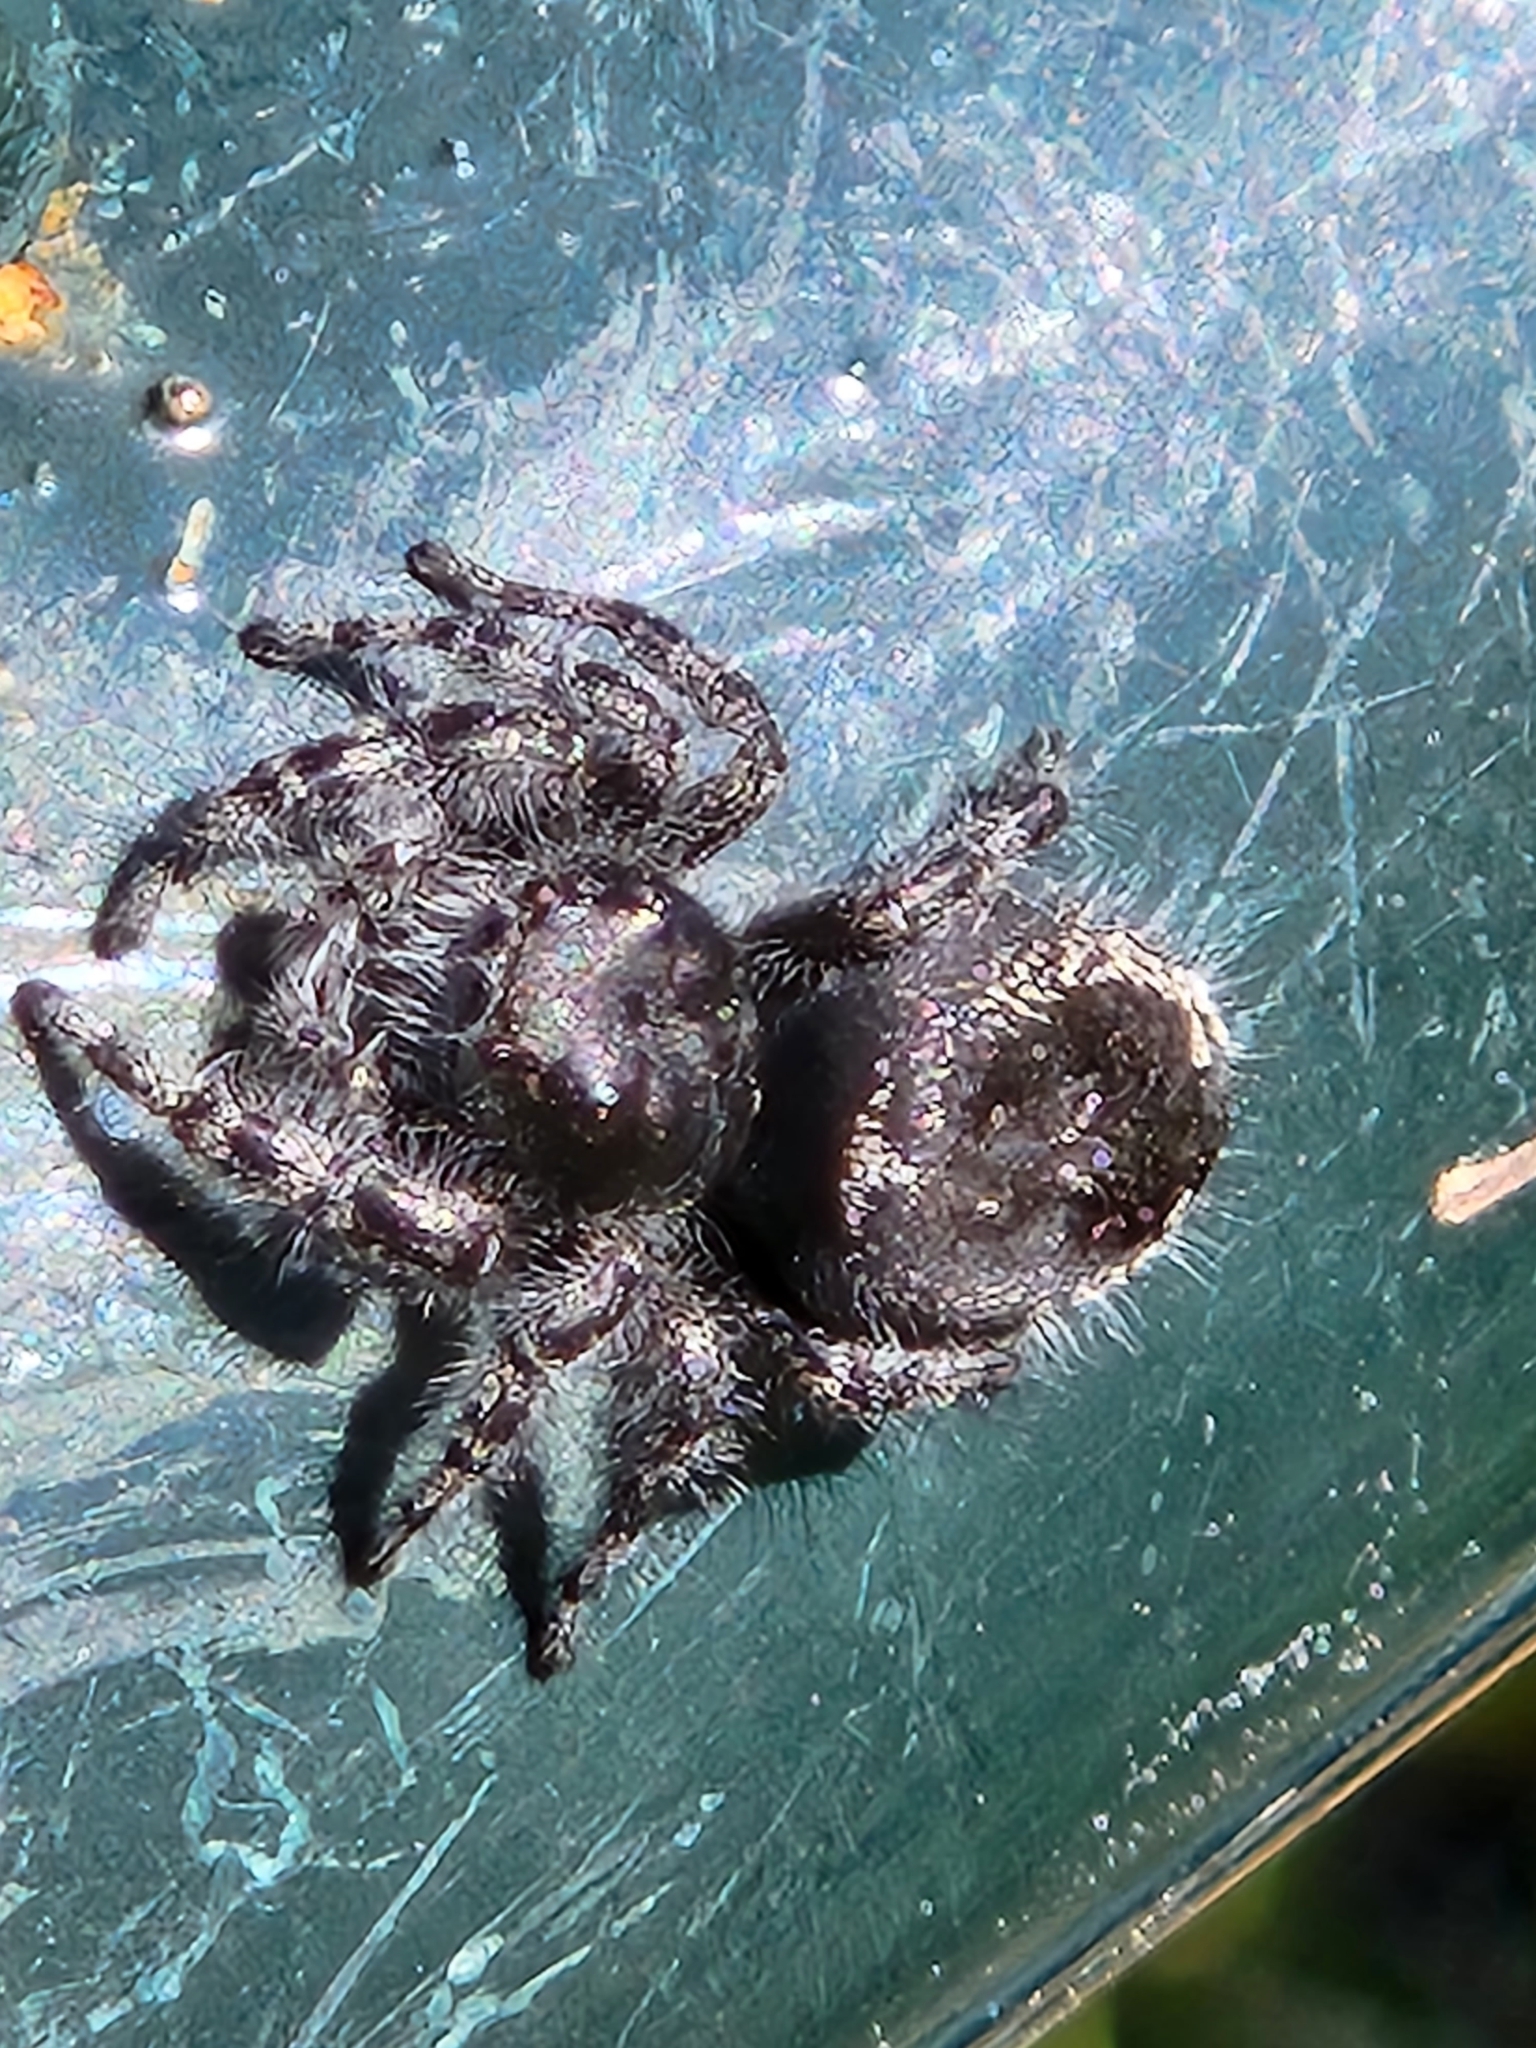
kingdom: Animalia
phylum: Arthropoda
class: Arachnida
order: Araneae
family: Salticidae
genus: Phidippus
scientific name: Phidippus borealis
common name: Boreal tufted jumping spider
